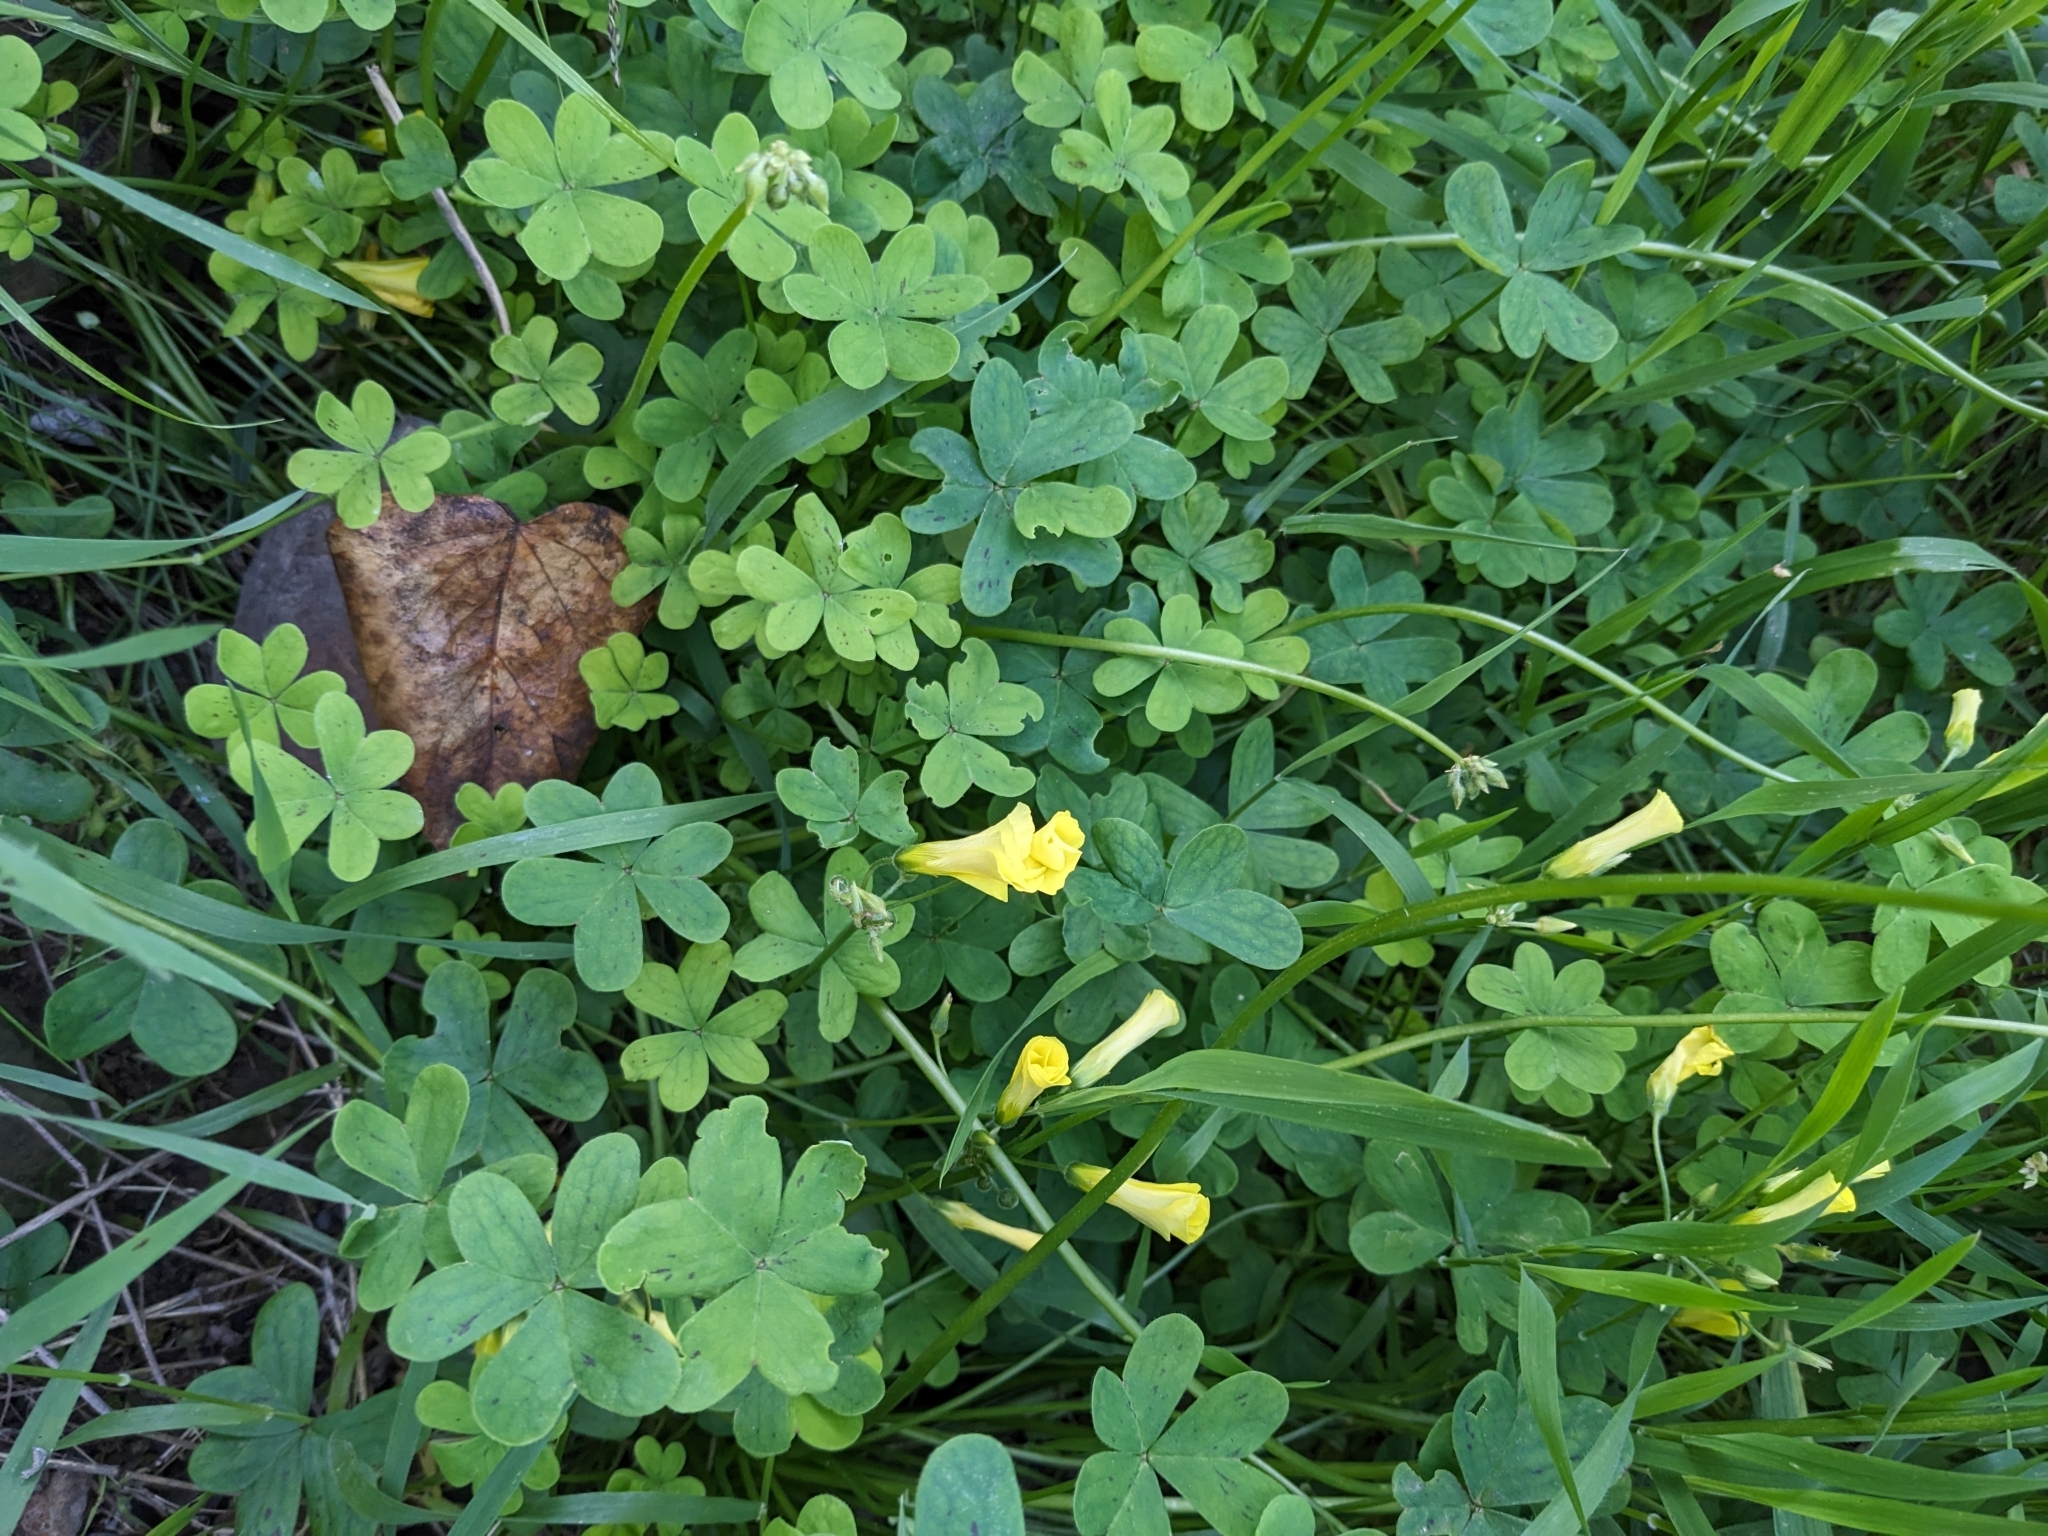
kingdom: Plantae
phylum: Tracheophyta
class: Magnoliopsida
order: Oxalidales
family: Oxalidaceae
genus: Oxalis
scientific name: Oxalis pes-caprae
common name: Bermuda-buttercup
